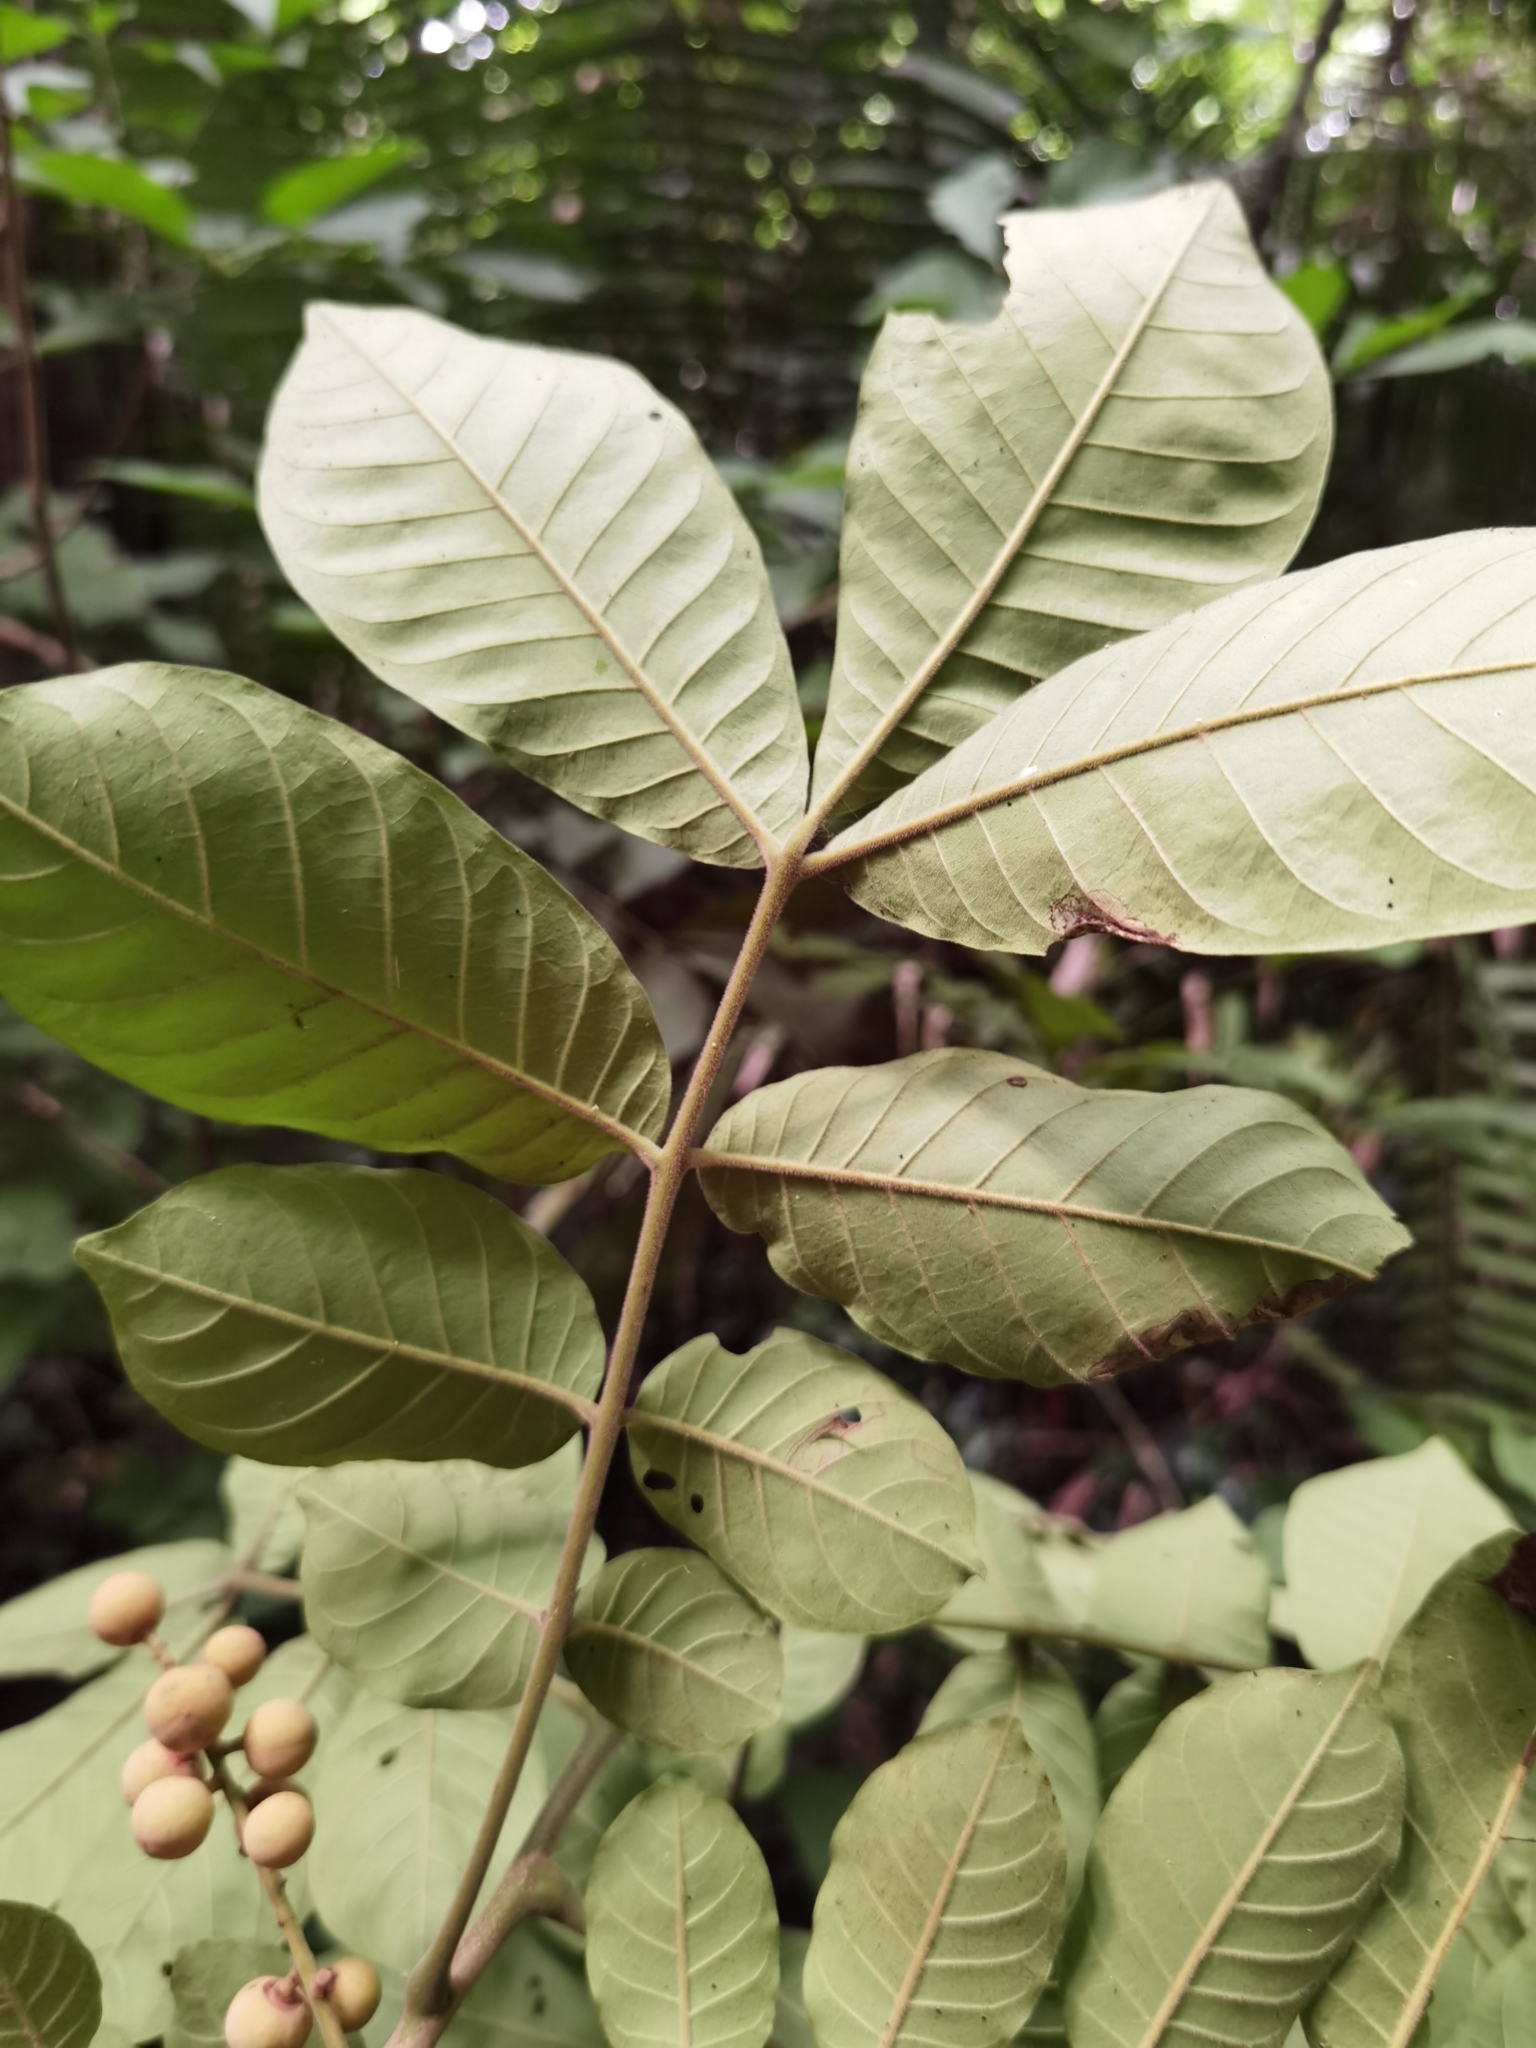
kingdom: Plantae
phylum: Tracheophyta
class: Magnoliopsida
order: Sapindales
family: Meliaceae
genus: Trichilia
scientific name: Trichilia martiana
